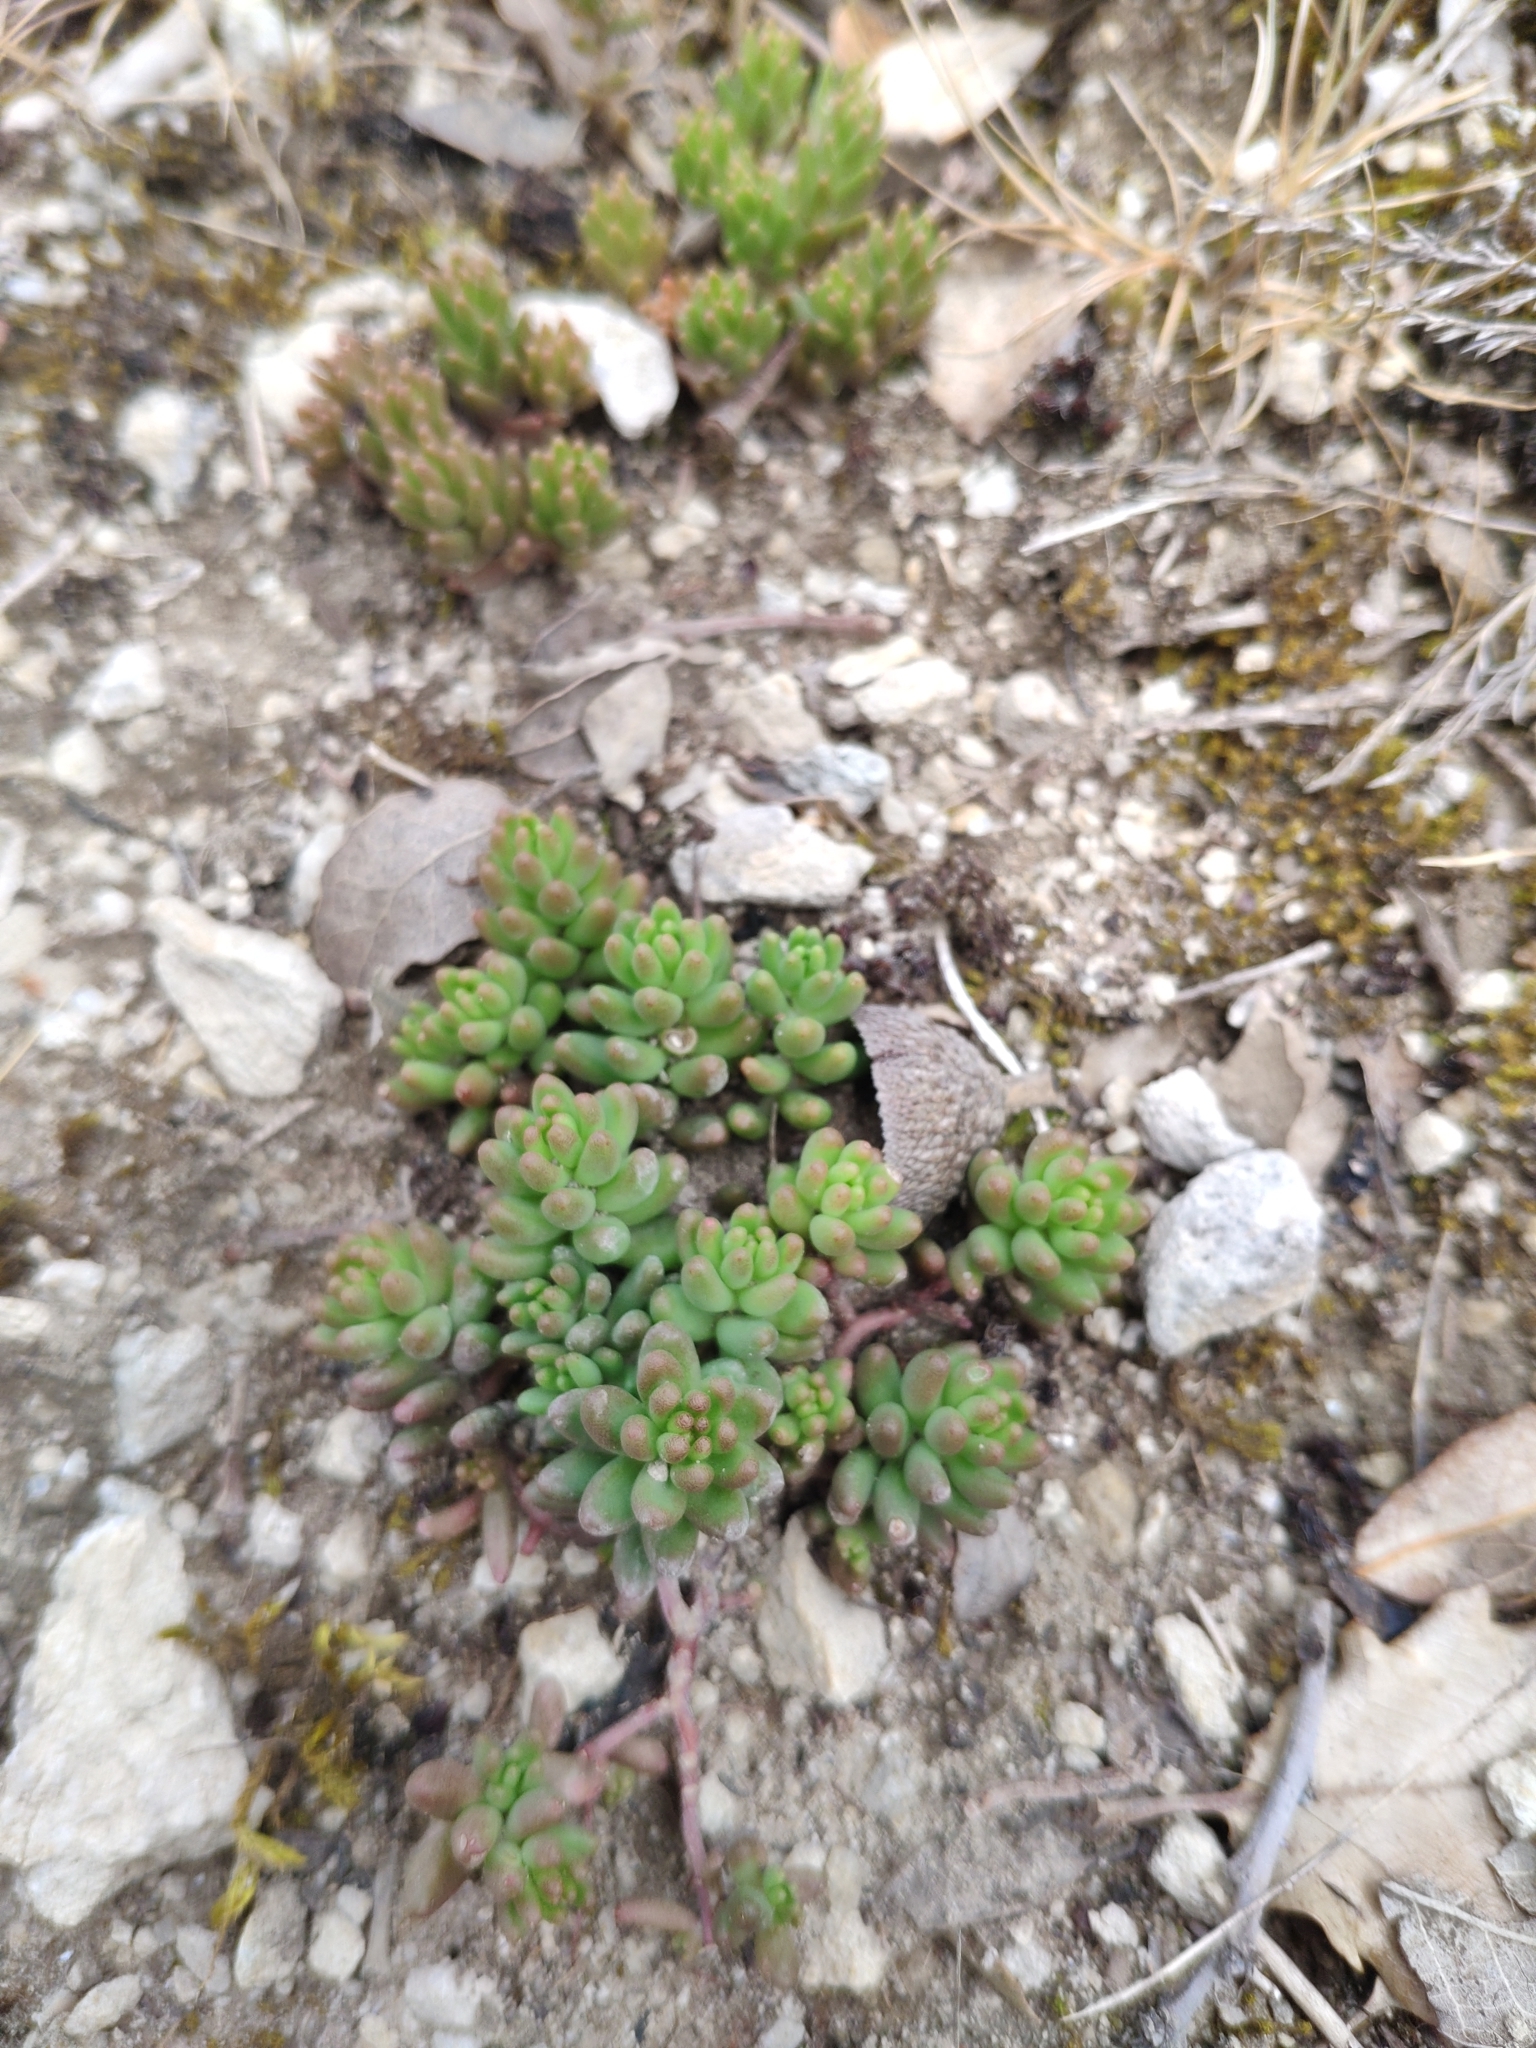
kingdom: Plantae
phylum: Tracheophyta
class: Magnoliopsida
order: Saxifragales
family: Crassulaceae
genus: Sedum
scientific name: Sedum album
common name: White stonecrop
